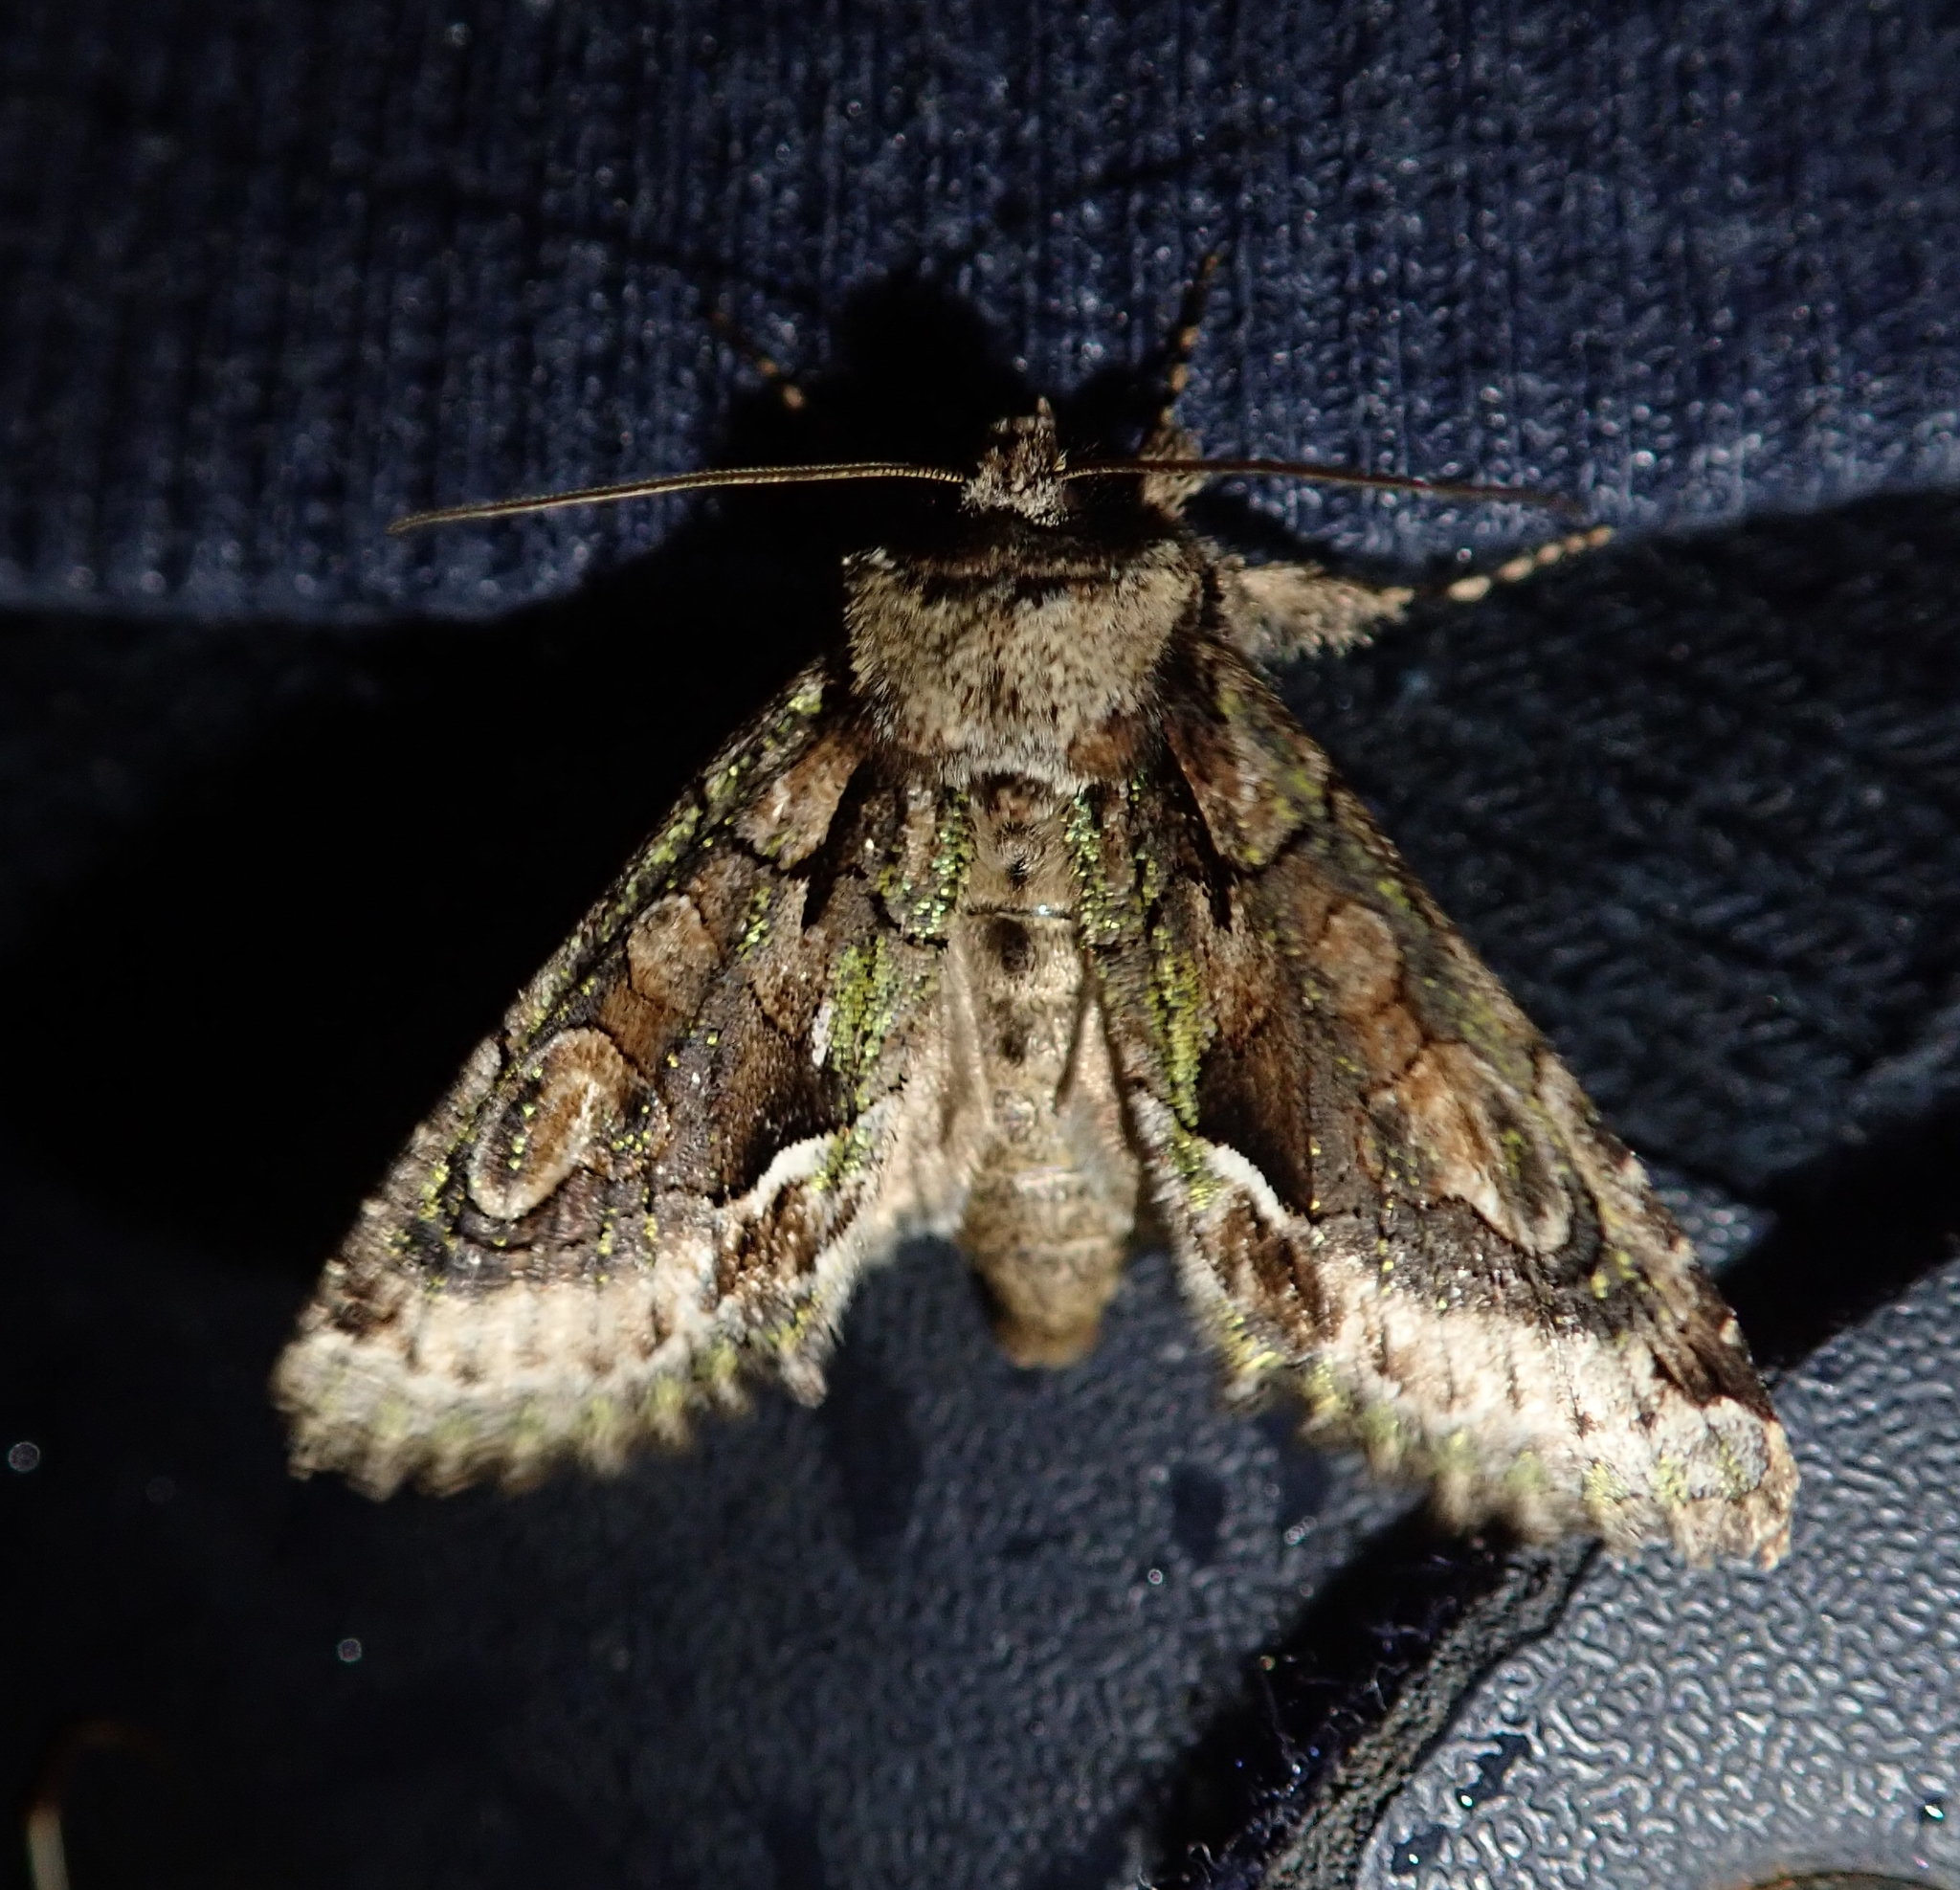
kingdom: Animalia
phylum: Arthropoda
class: Insecta
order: Lepidoptera
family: Noctuidae
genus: Allophyes
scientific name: Allophyes oxyacanthae
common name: Green-brindled crescent
